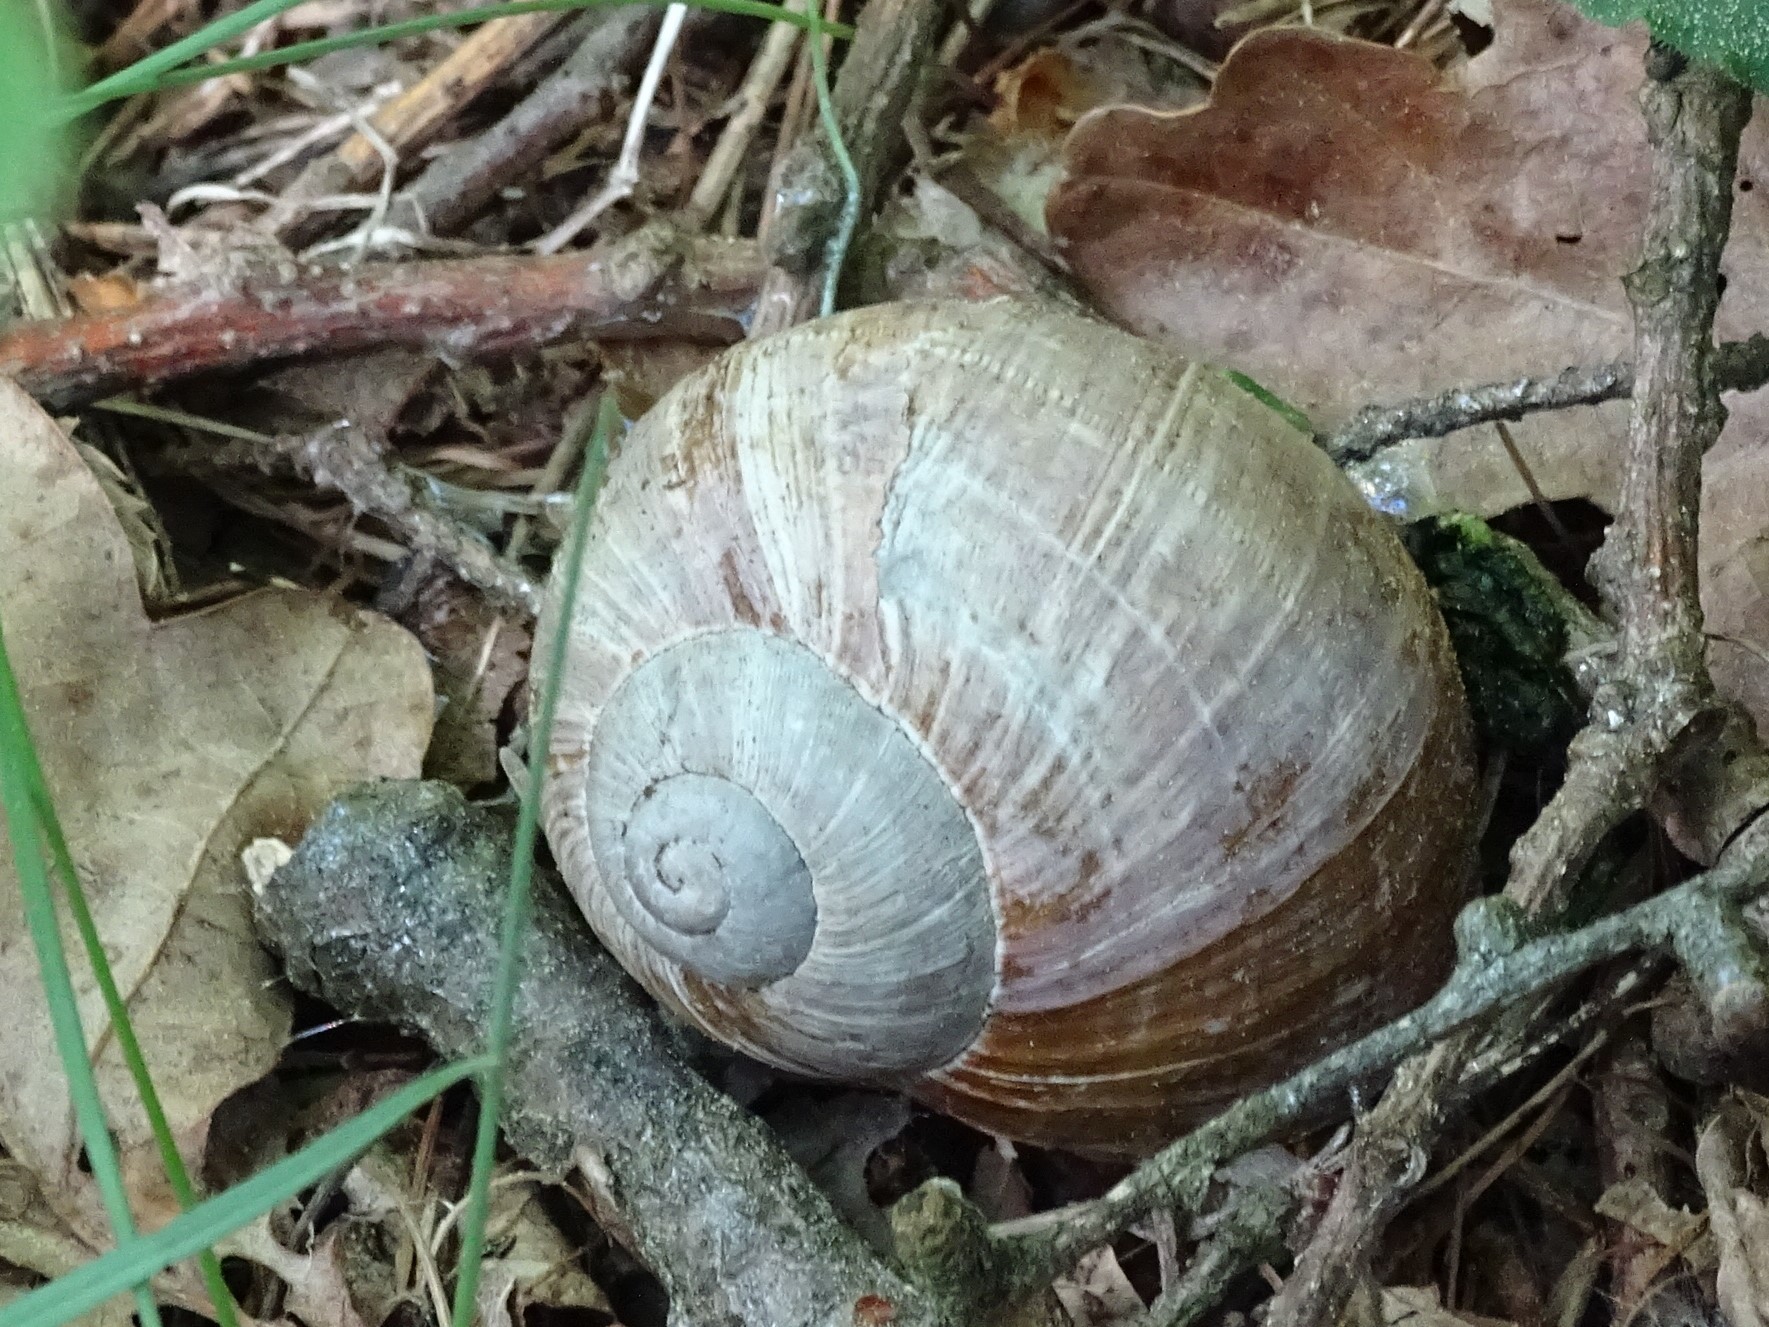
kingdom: Animalia
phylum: Mollusca
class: Gastropoda
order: Stylommatophora
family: Helicidae
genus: Helix
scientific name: Helix pomatia
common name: Roman snail
